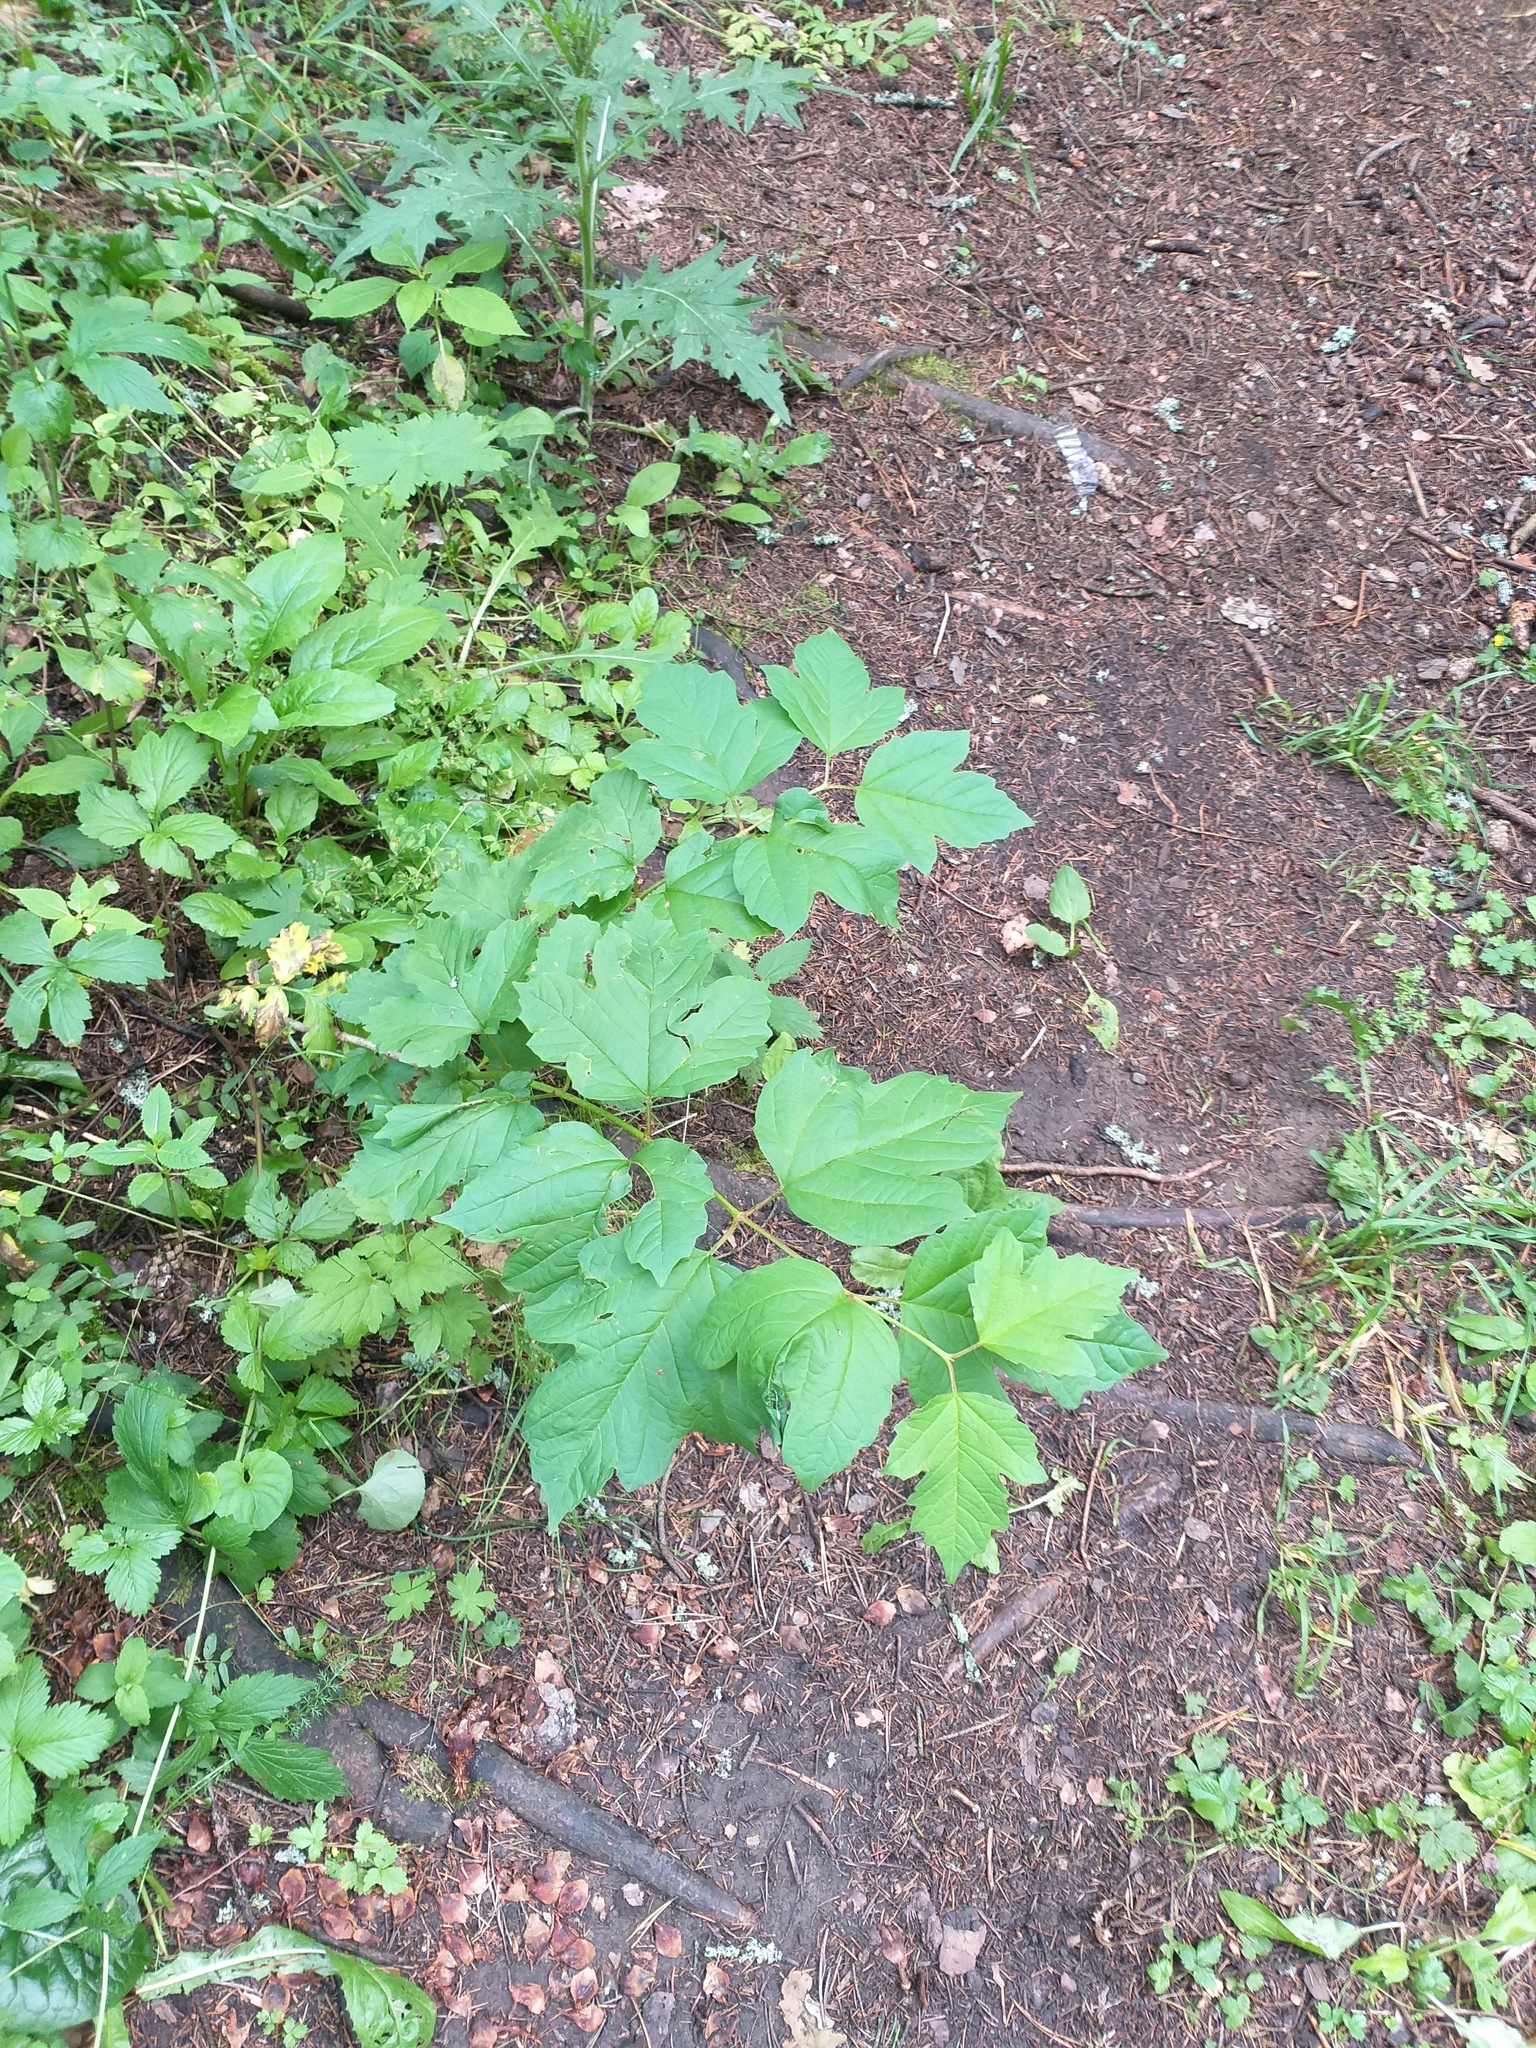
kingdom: Plantae
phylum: Tracheophyta
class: Magnoliopsida
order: Dipsacales
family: Viburnaceae
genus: Viburnum
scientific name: Viburnum opulus
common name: Guelder-rose
